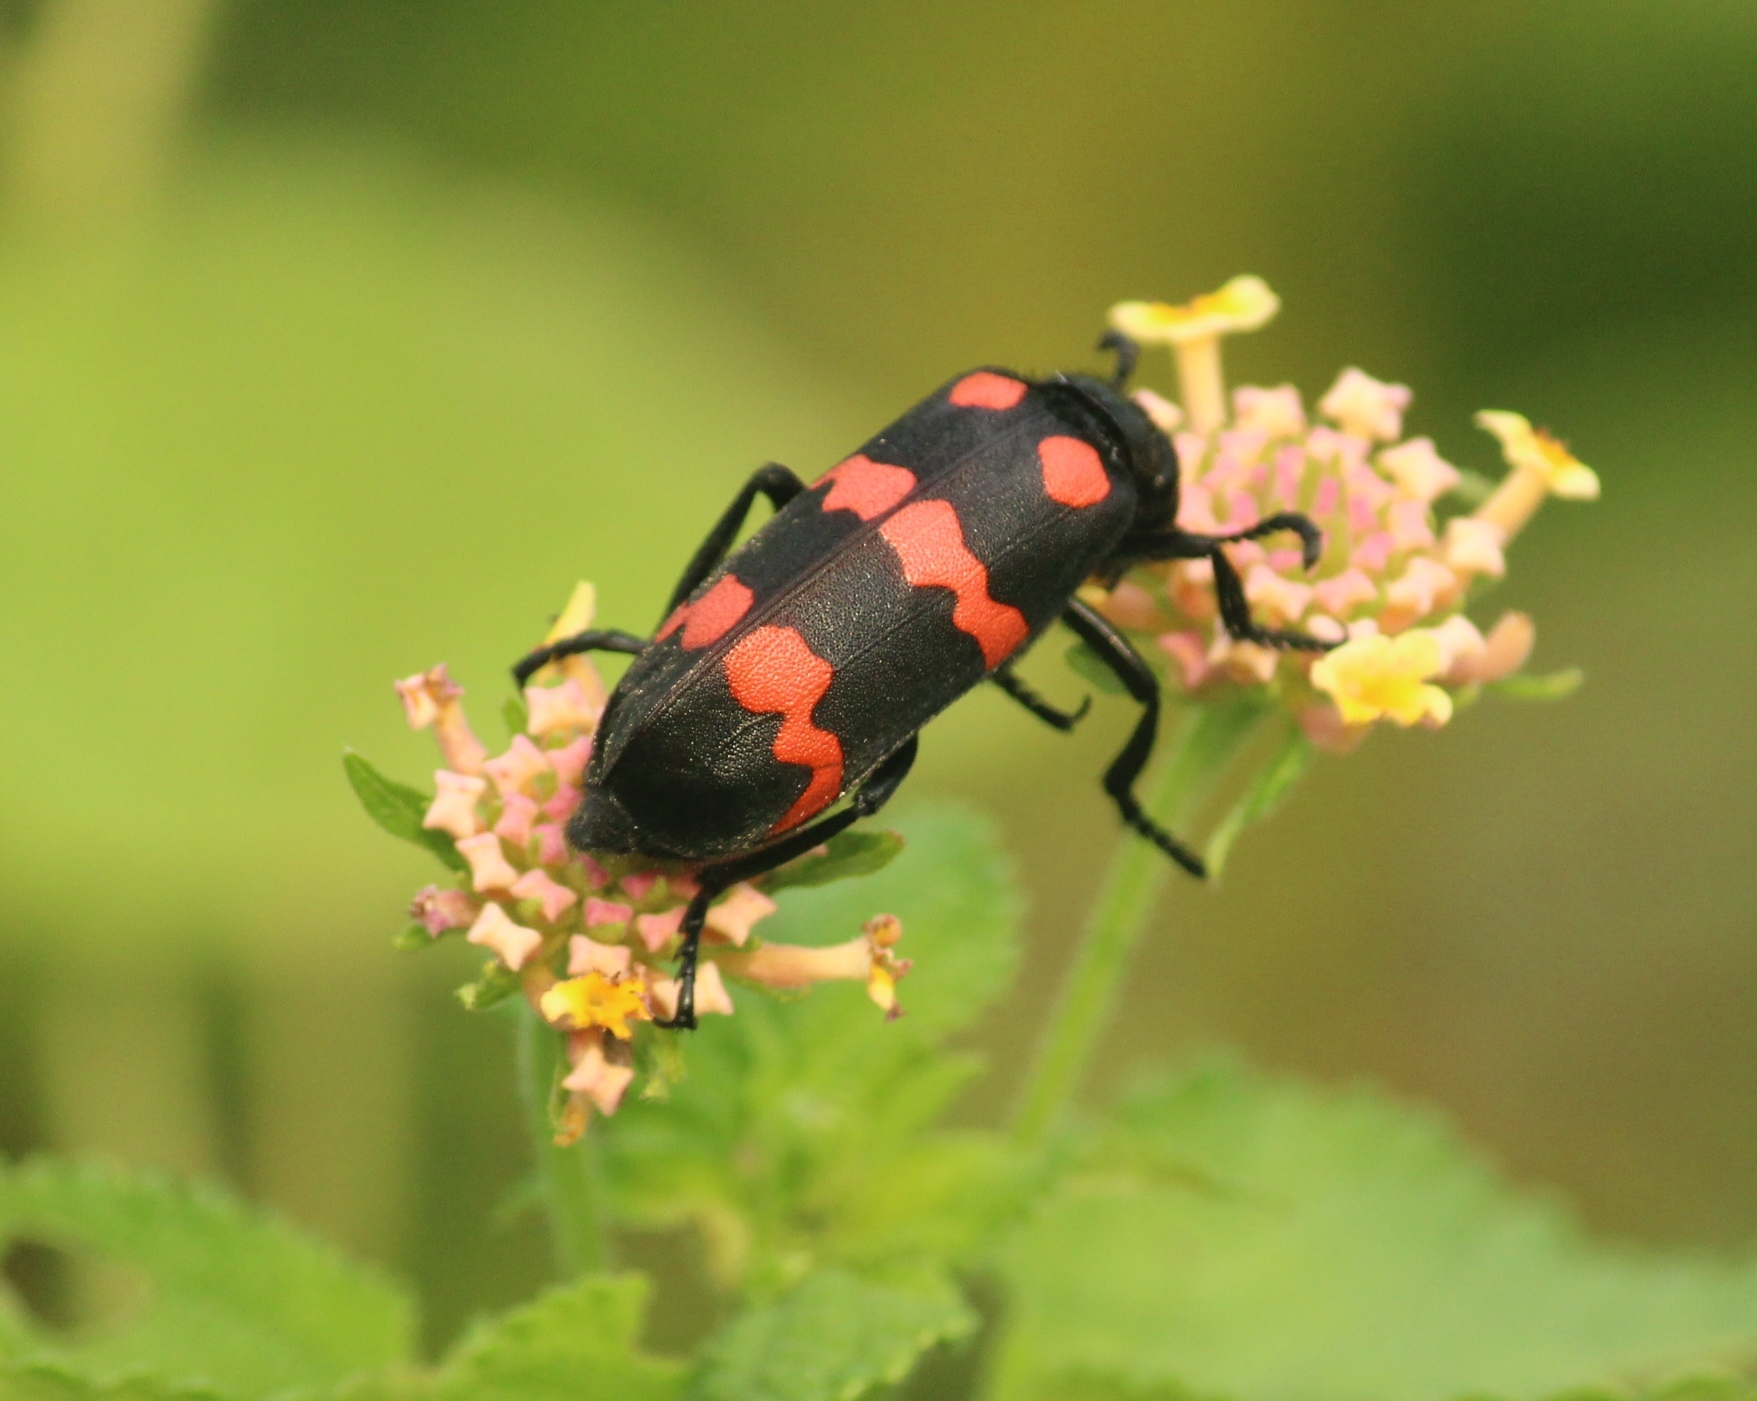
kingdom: Animalia
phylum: Arthropoda
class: Insecta
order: Coleoptera
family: Meloidae
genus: Hycleus
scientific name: Hycleus biundulatus
